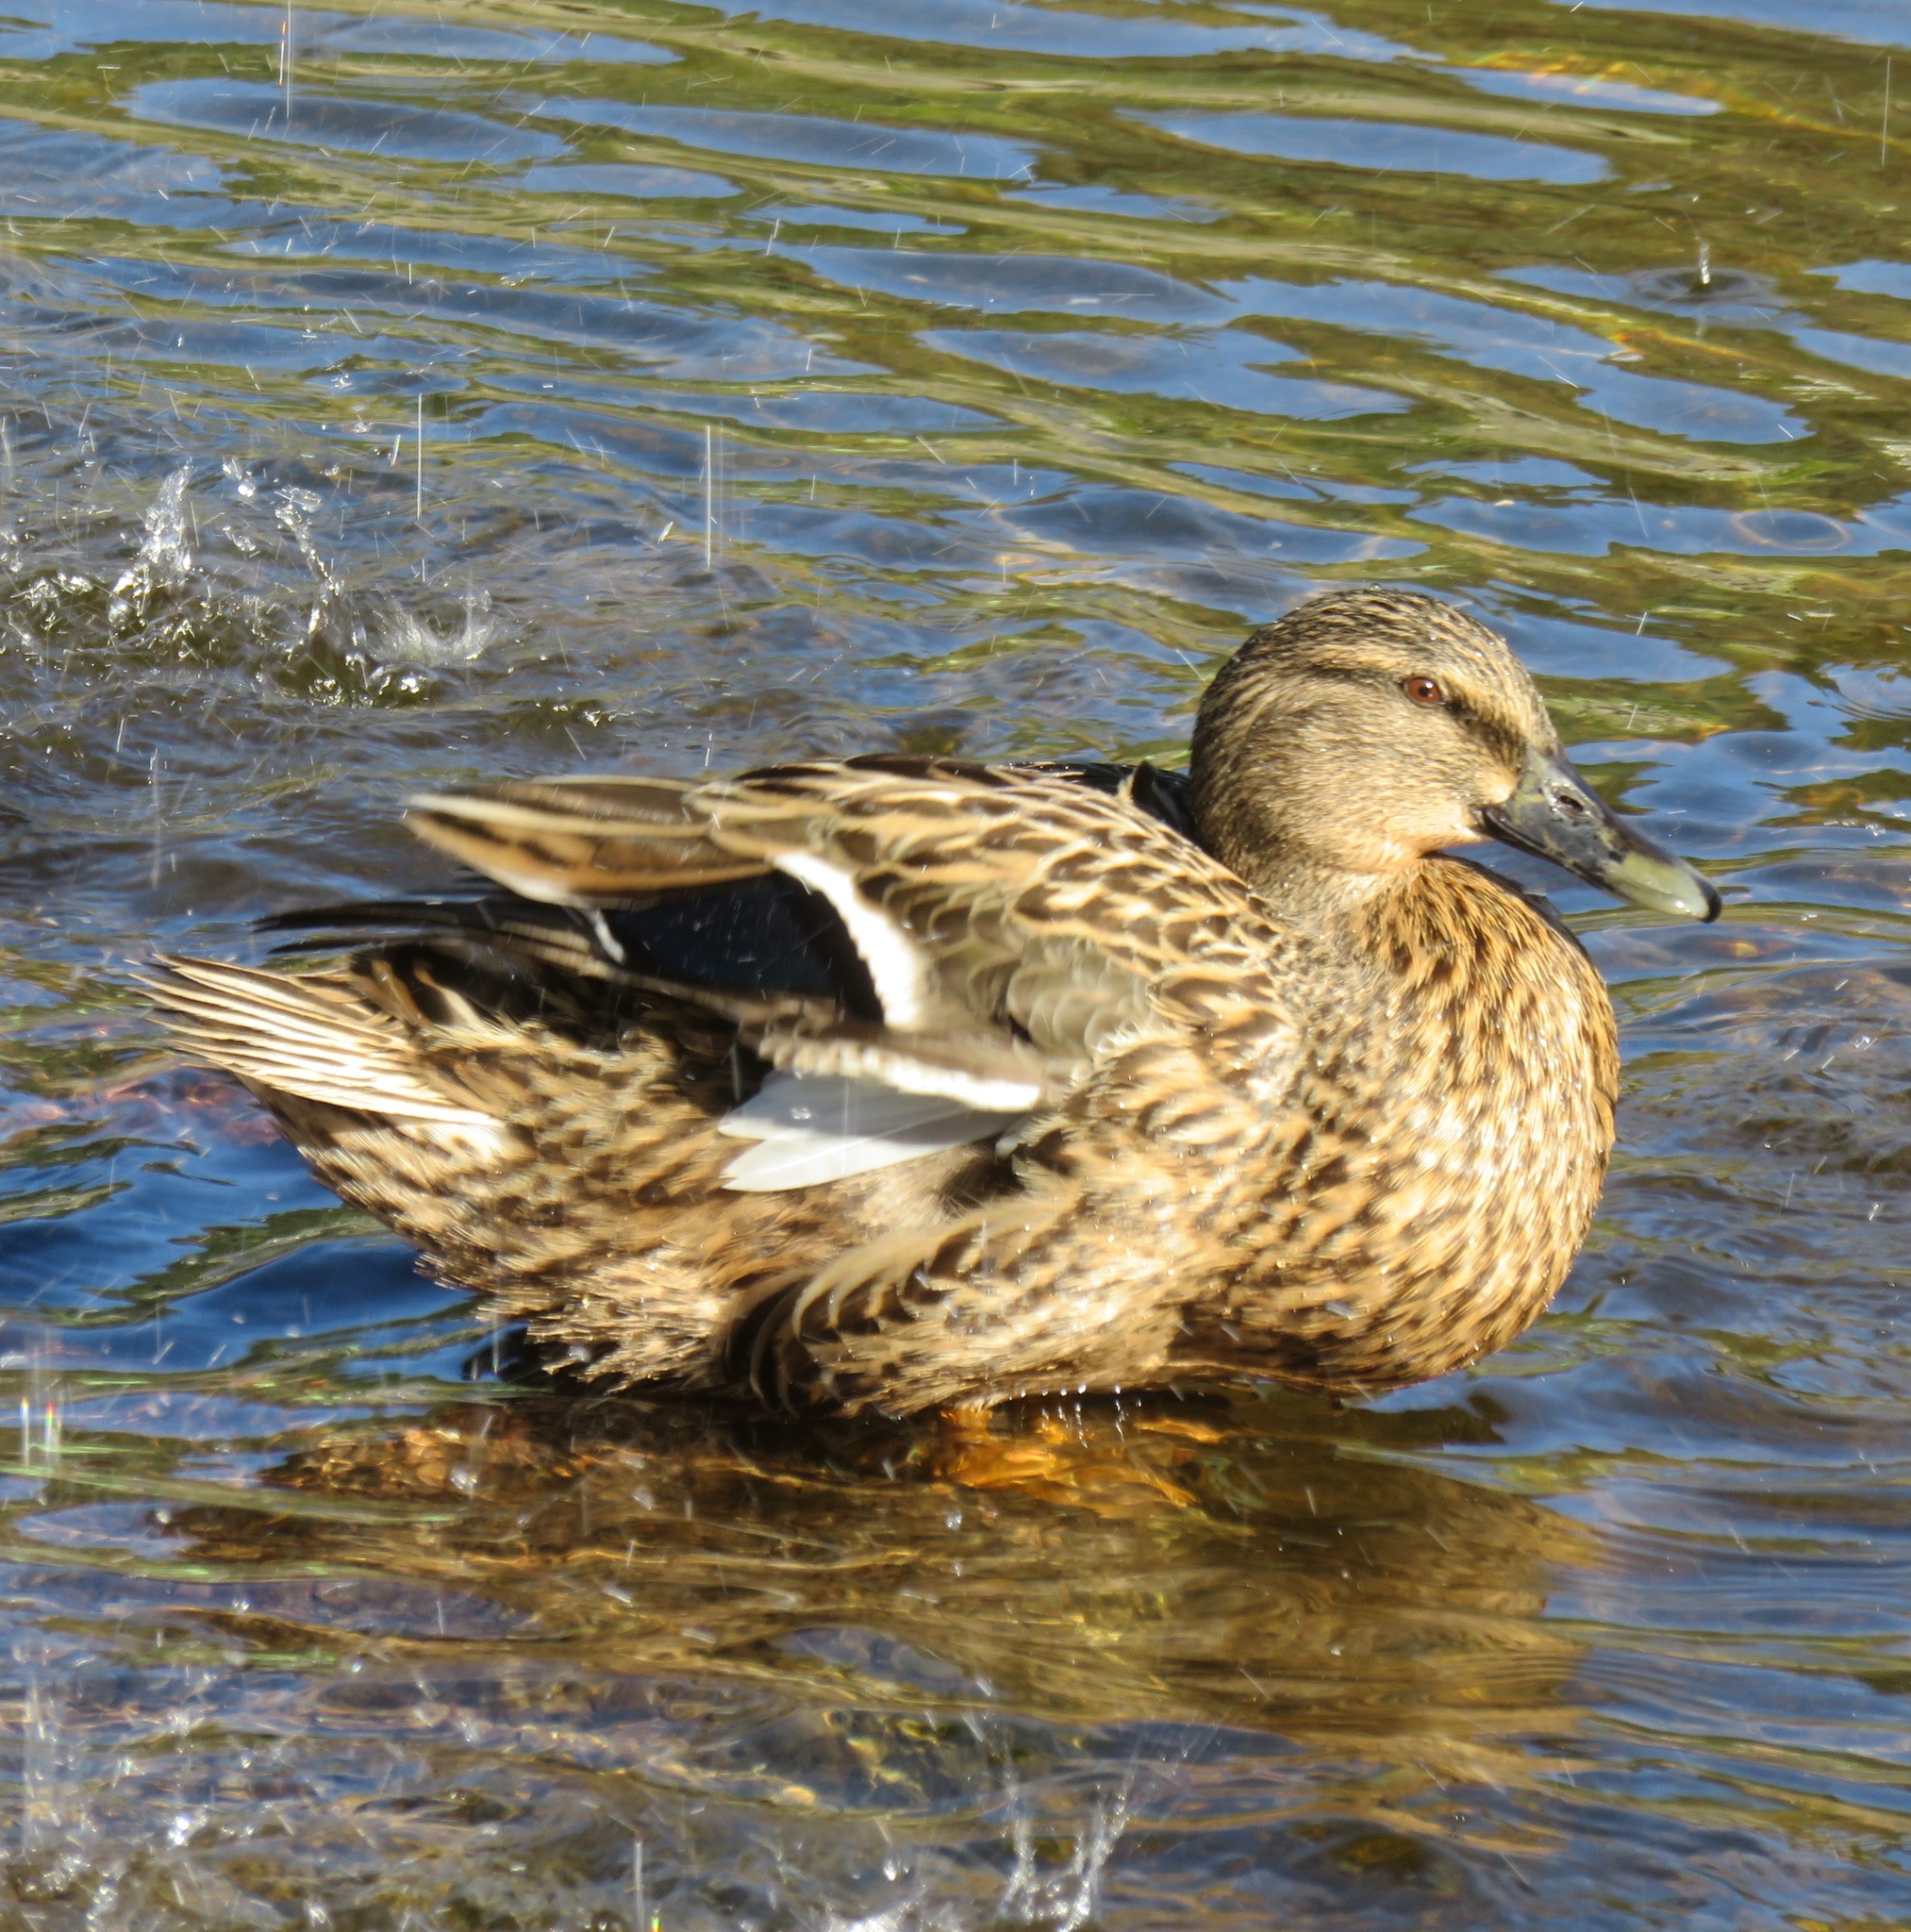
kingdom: Animalia
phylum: Chordata
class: Aves
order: Anseriformes
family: Anatidae
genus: Anas
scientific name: Anas platyrhynchos
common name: Mallard
